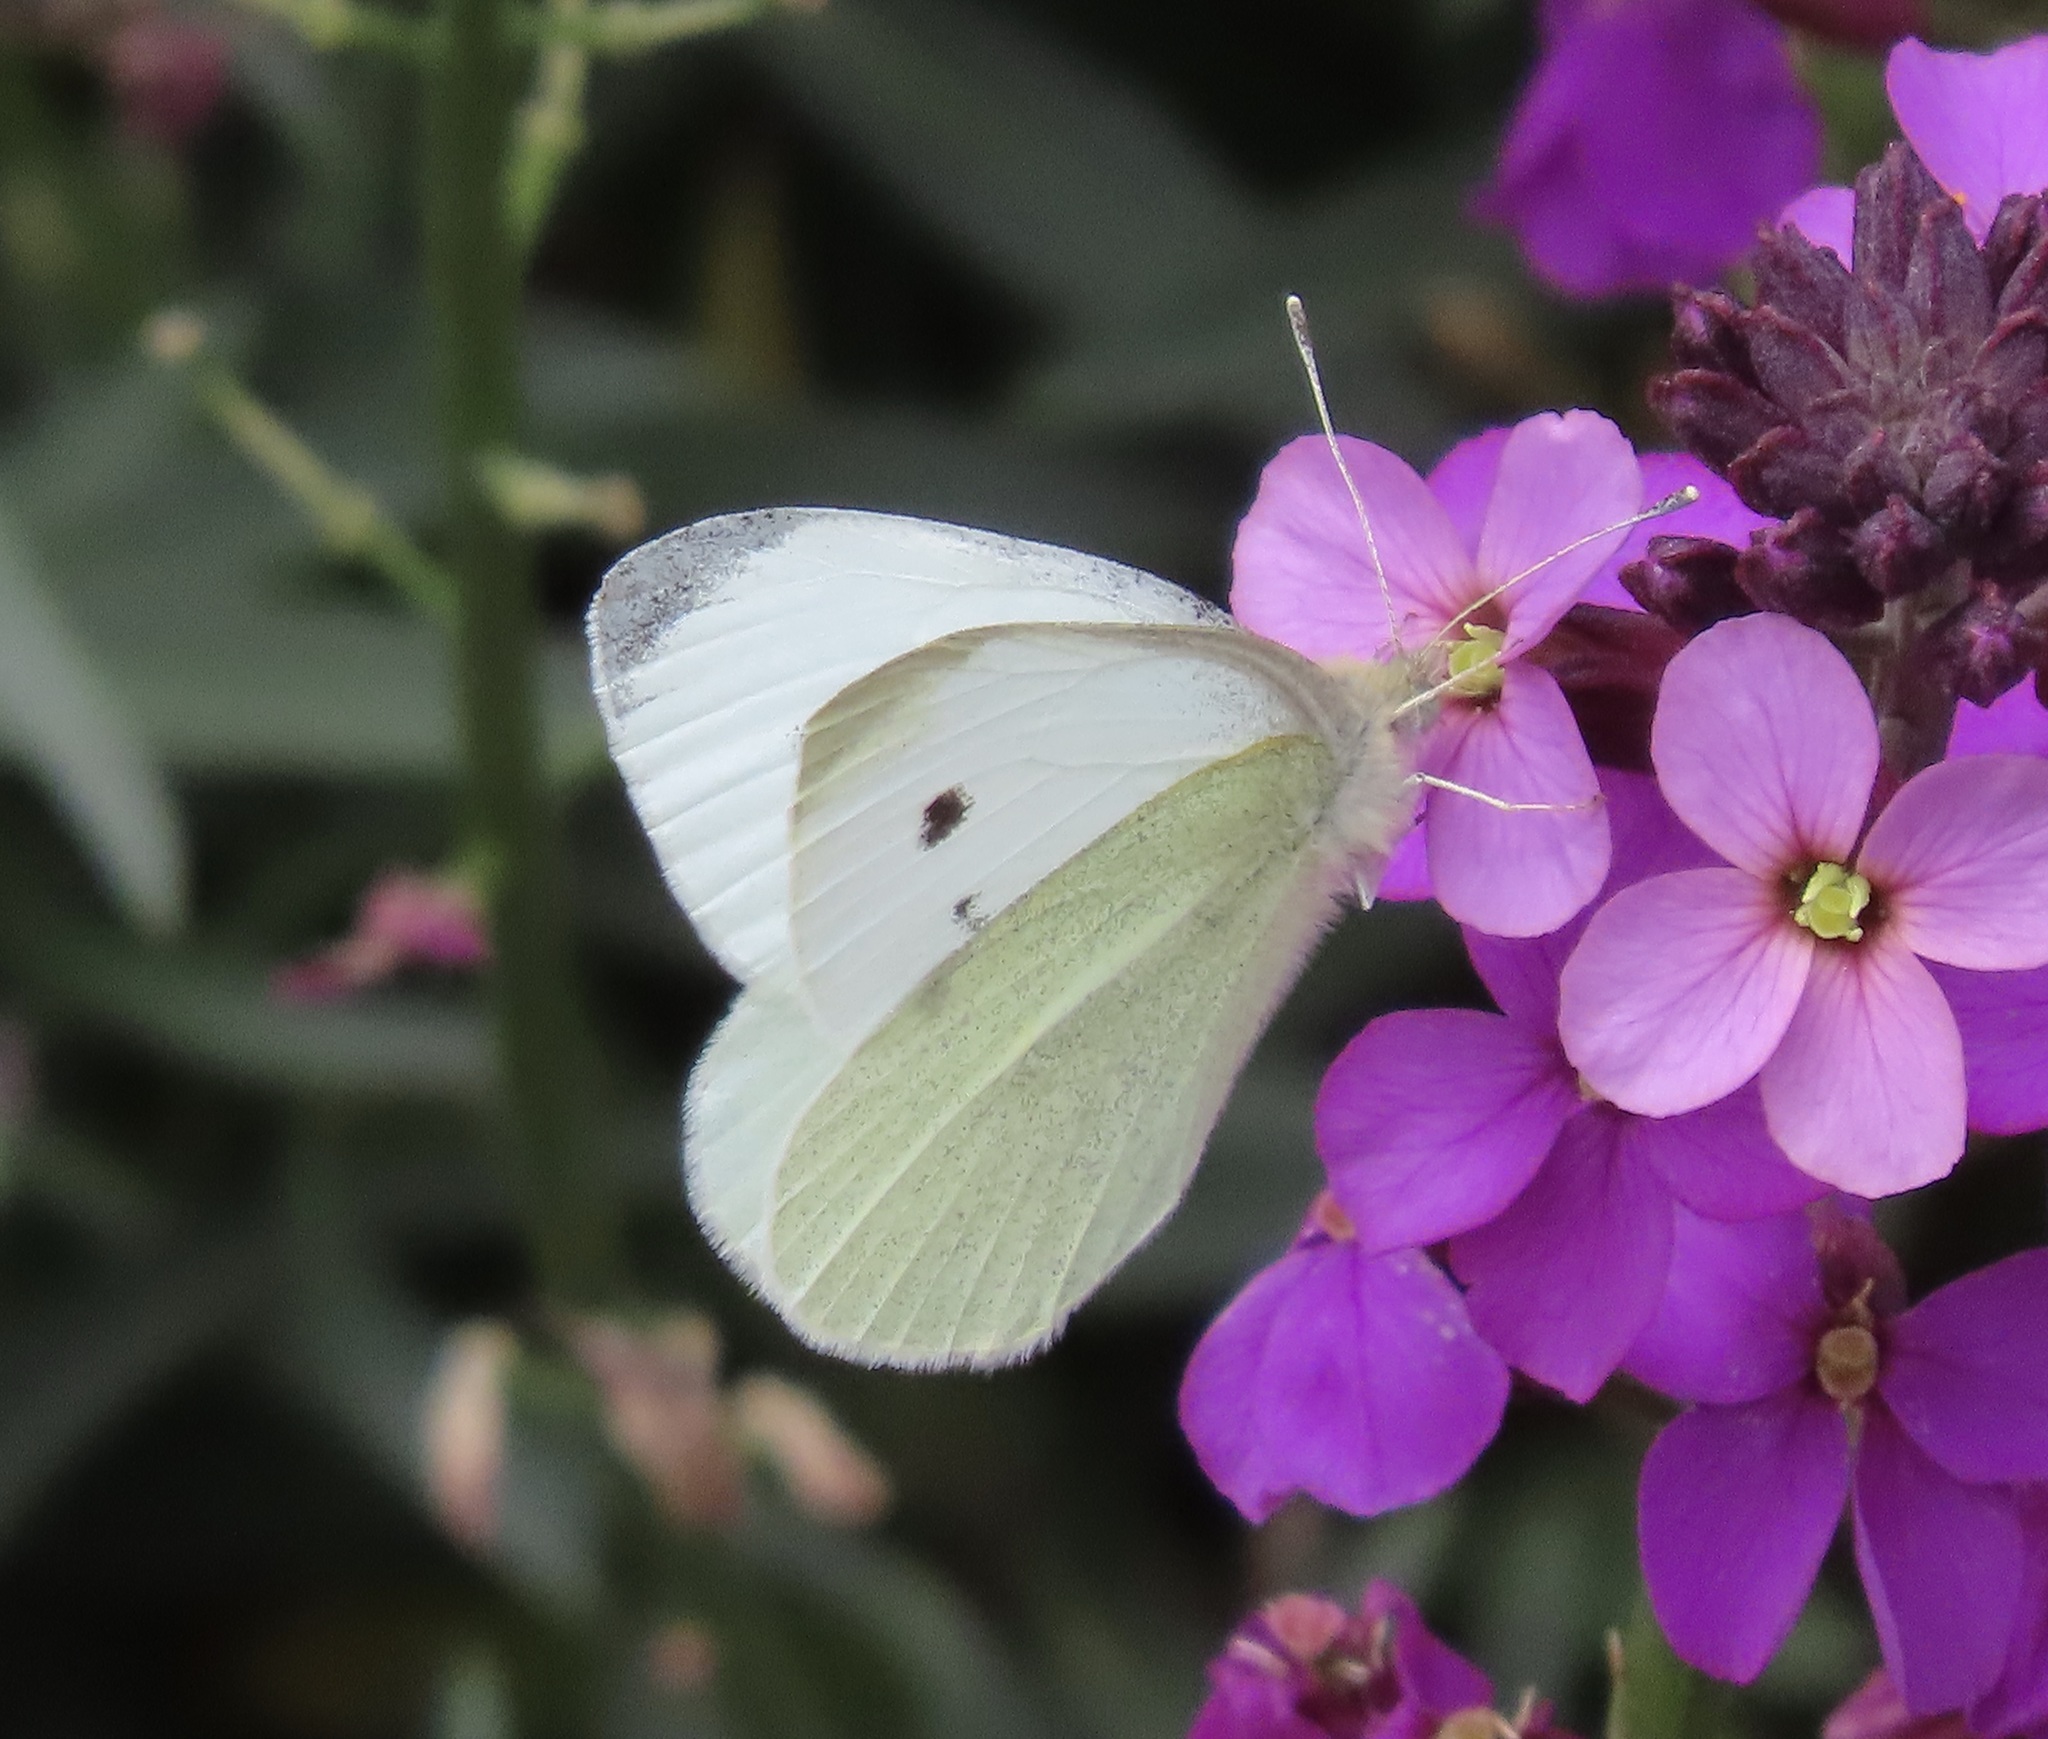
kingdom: Animalia
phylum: Arthropoda
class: Insecta
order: Lepidoptera
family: Pieridae
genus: Pieris
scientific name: Pieris rapae
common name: Small white
